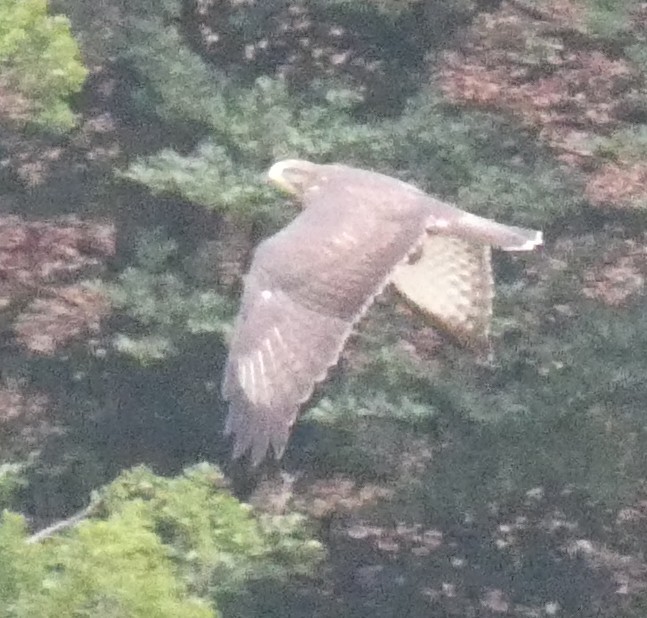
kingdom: Animalia
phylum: Chordata
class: Aves
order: Accipitriformes
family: Accipitridae
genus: Buteo
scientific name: Buteo buteo
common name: Common buzzard
